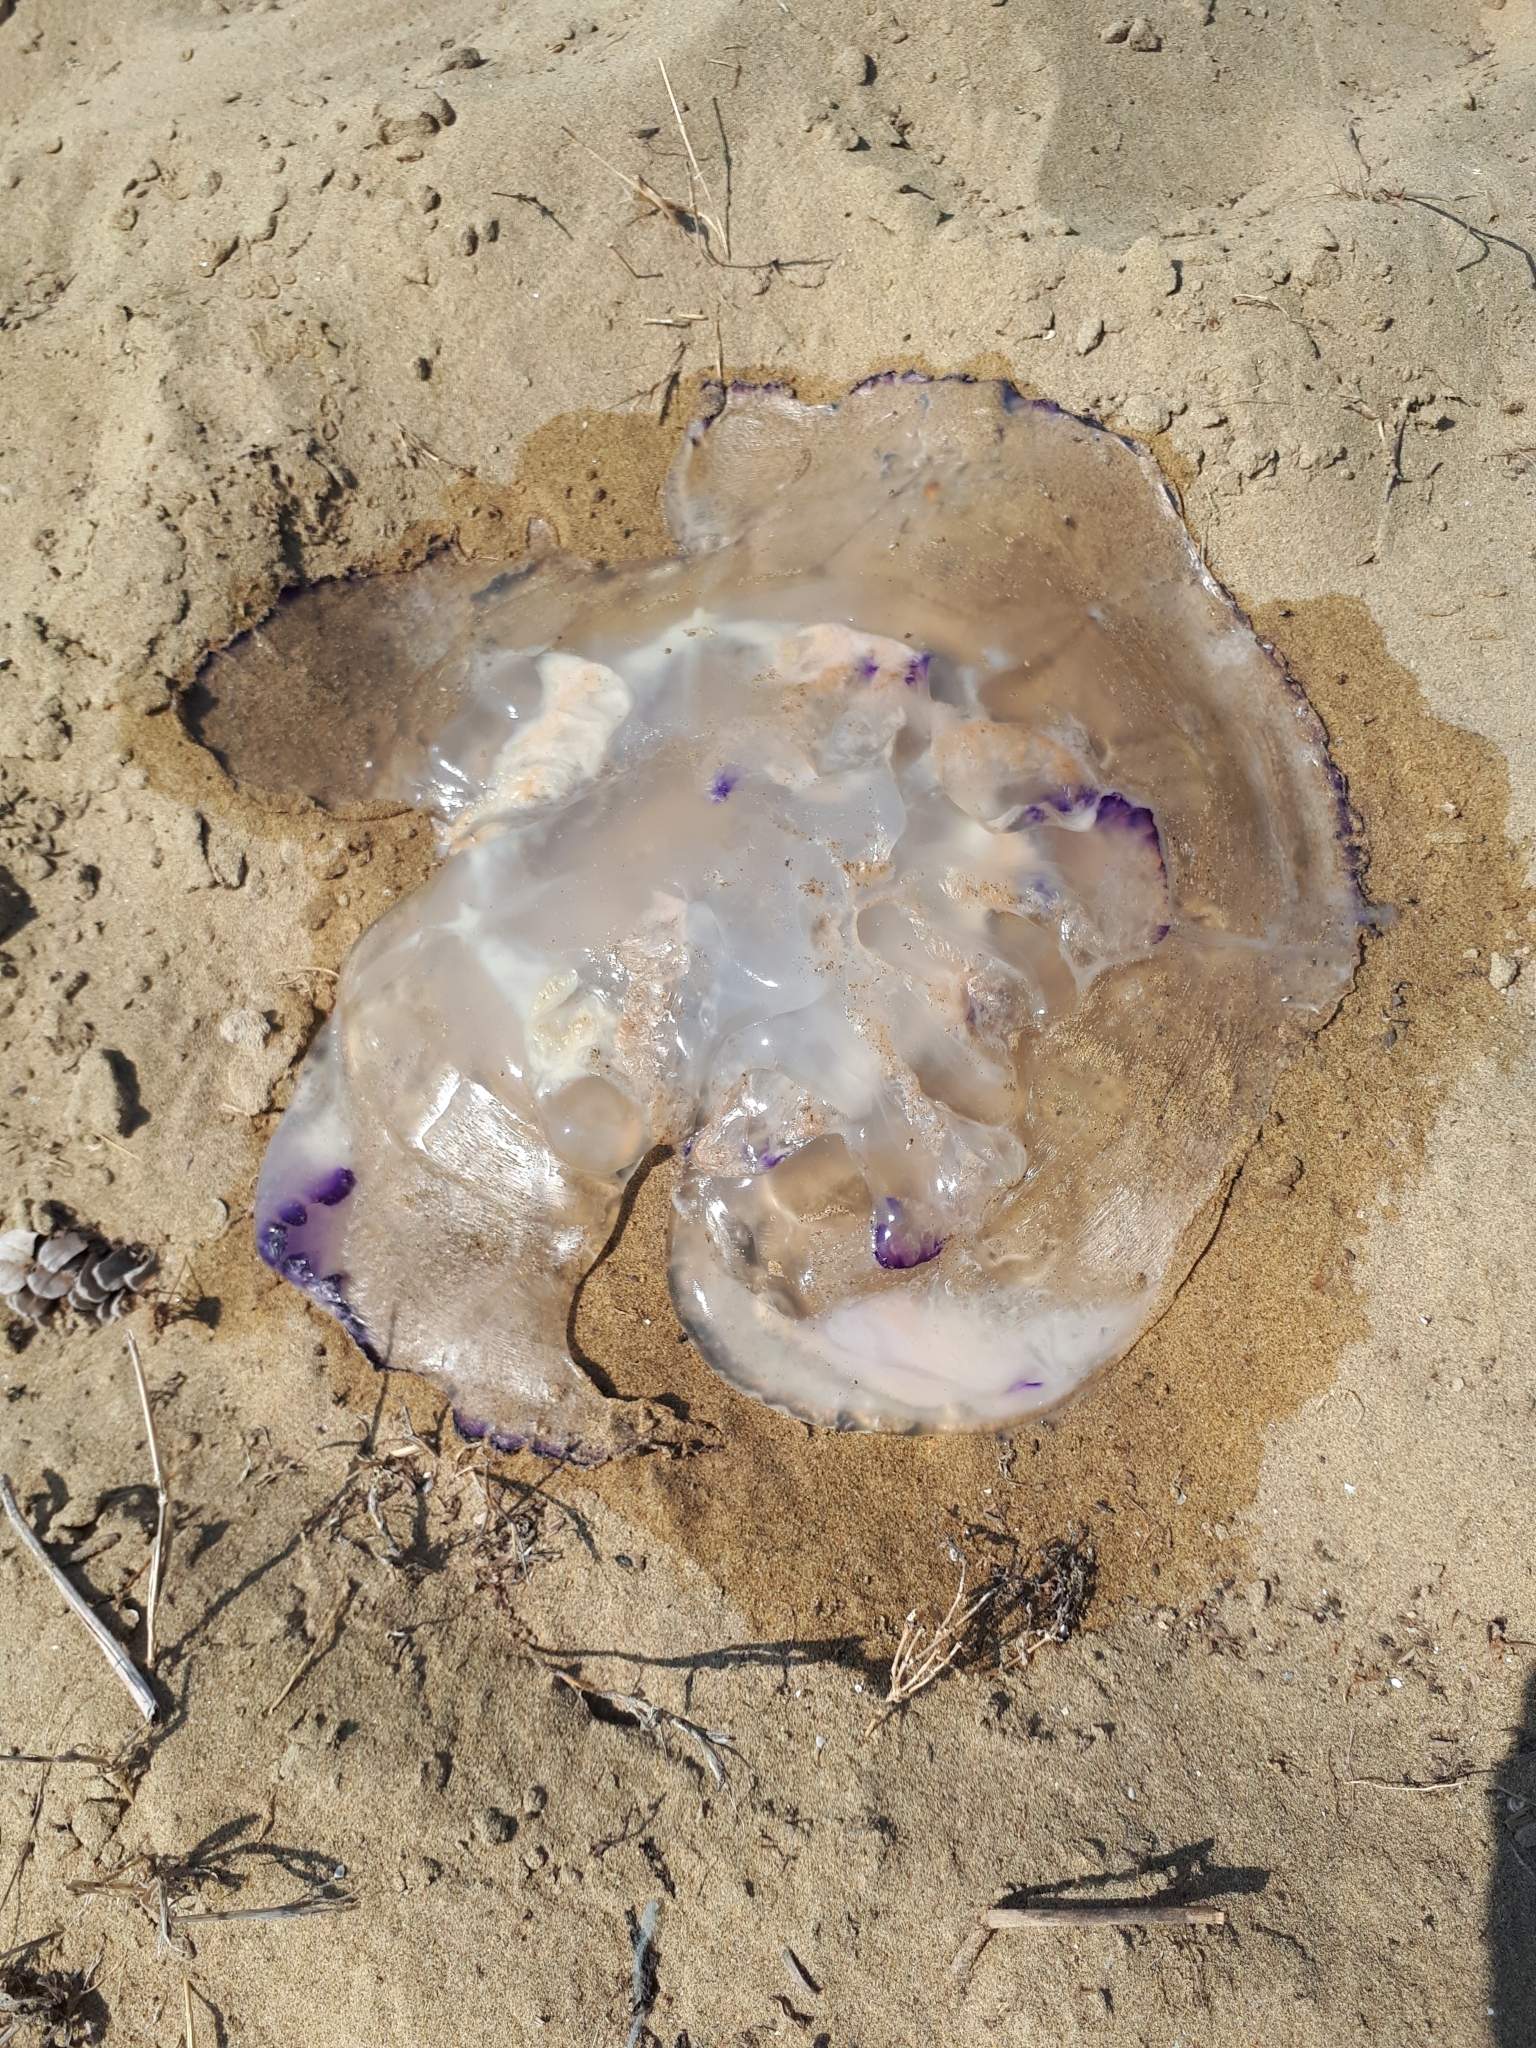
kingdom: Animalia
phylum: Cnidaria
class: Scyphozoa
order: Rhizostomeae
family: Rhizostomatidae
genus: Rhizostoma
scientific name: Rhizostoma pulmo
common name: Barrel jellyfish
